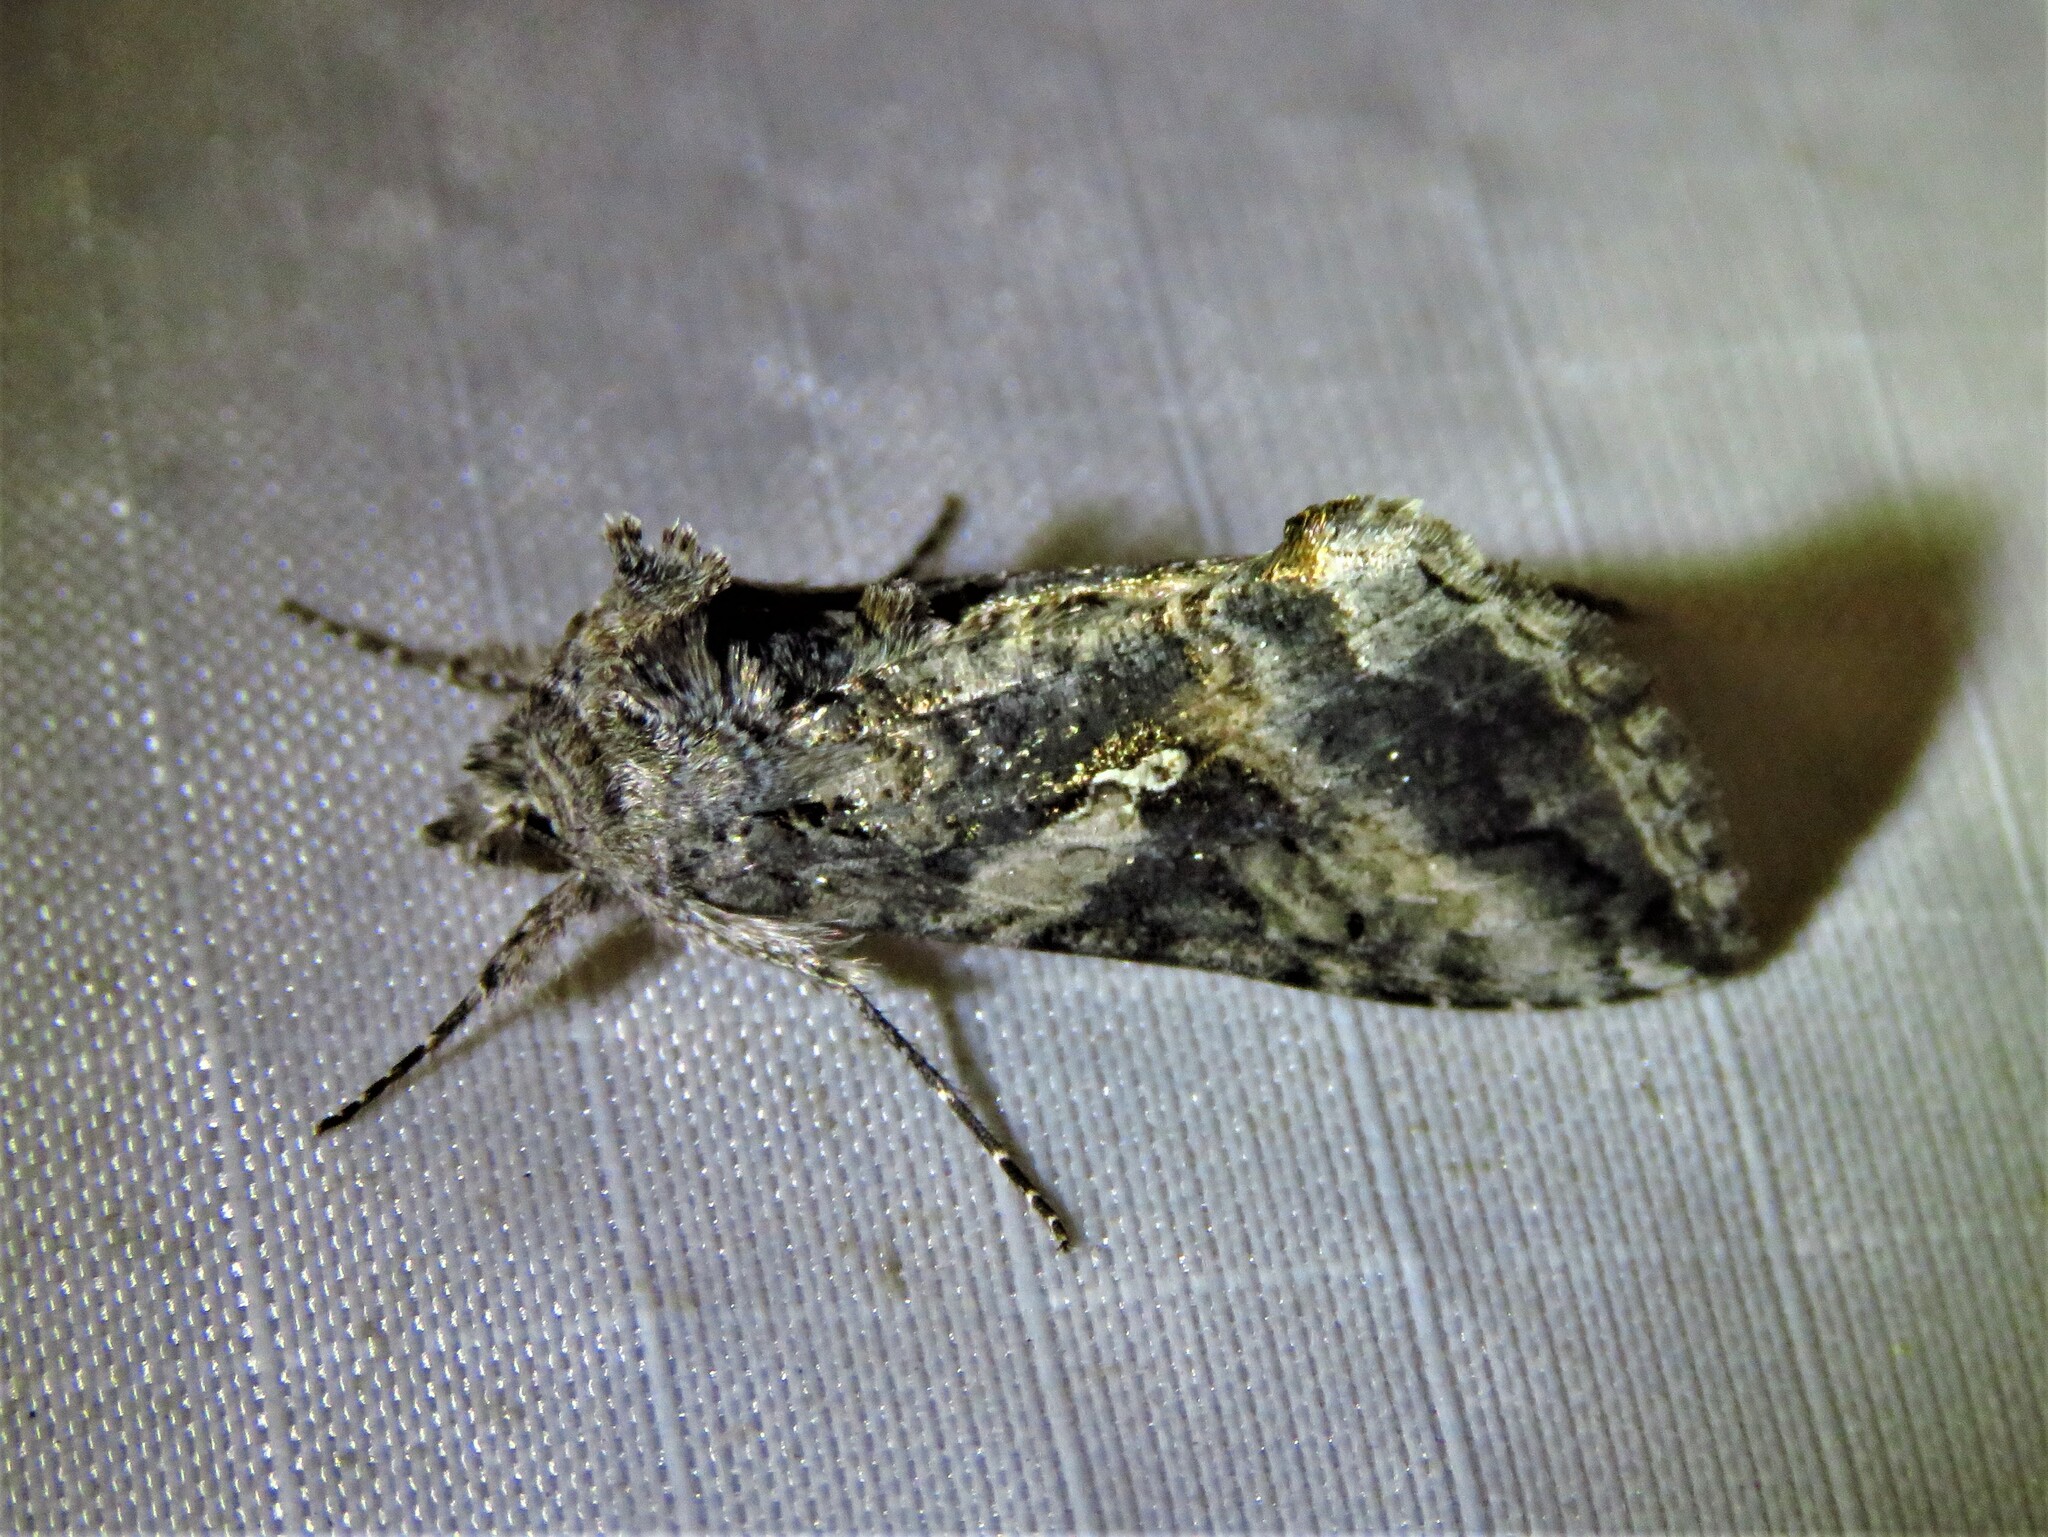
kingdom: Animalia
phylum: Arthropoda
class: Insecta
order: Lepidoptera
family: Noctuidae
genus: Rachiplusia
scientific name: Rachiplusia ou
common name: Gray looper moth
